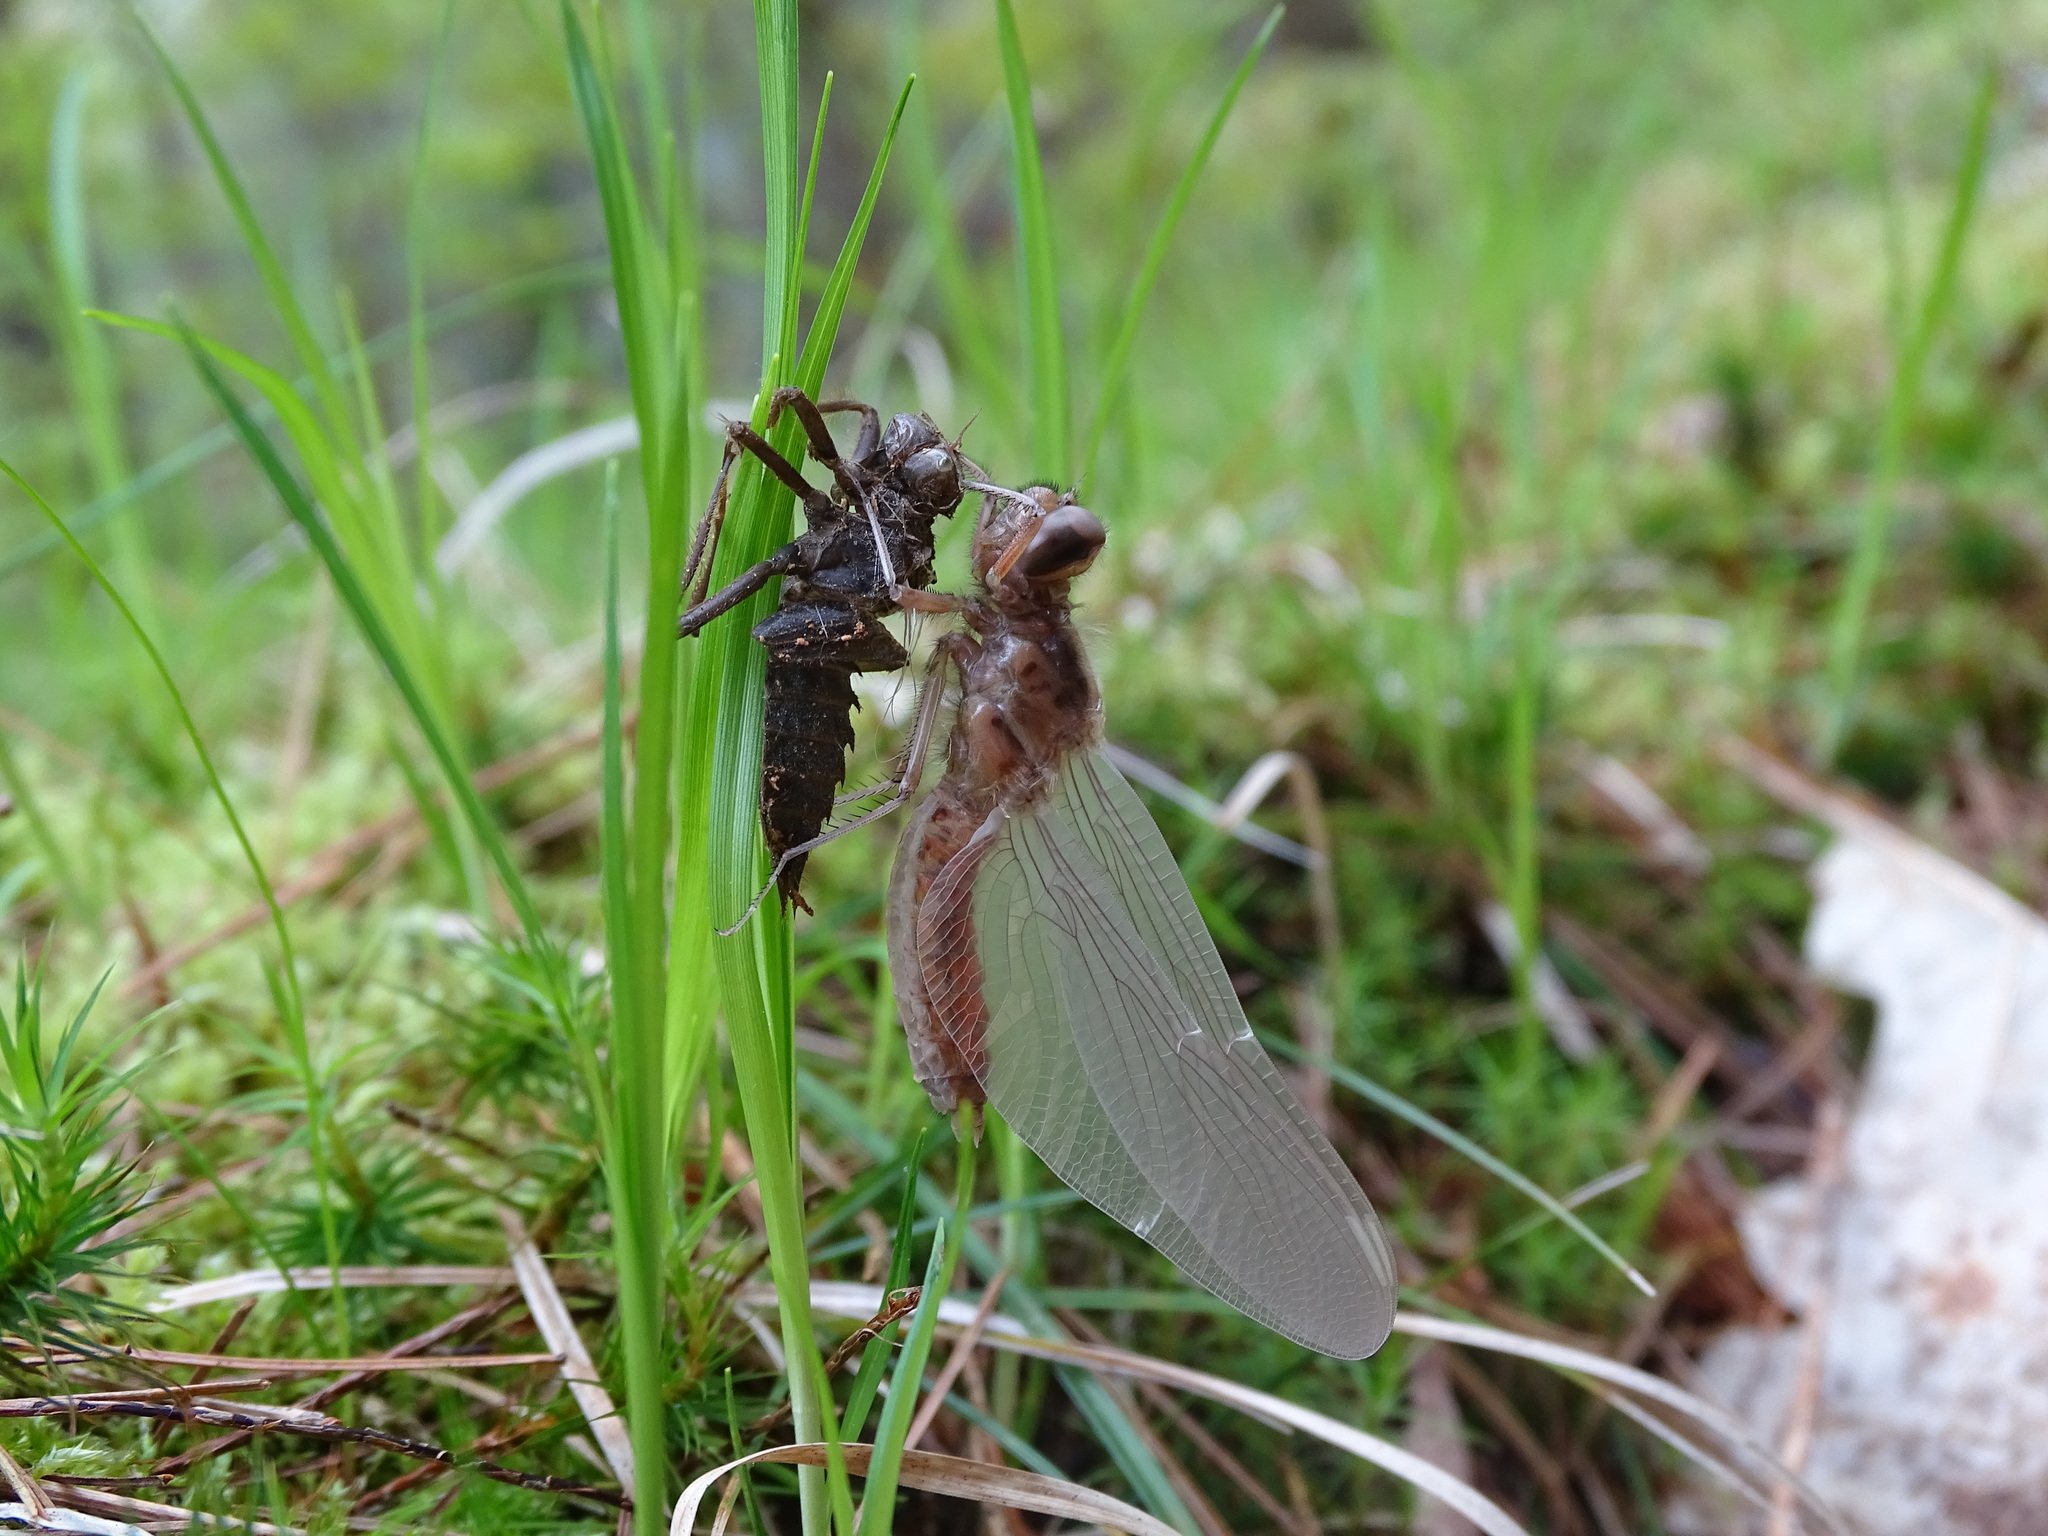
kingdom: Animalia
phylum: Arthropoda
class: Insecta
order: Odonata
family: Libellulidae
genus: Ladona
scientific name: Ladona julia
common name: Chalk-fronted corporal
